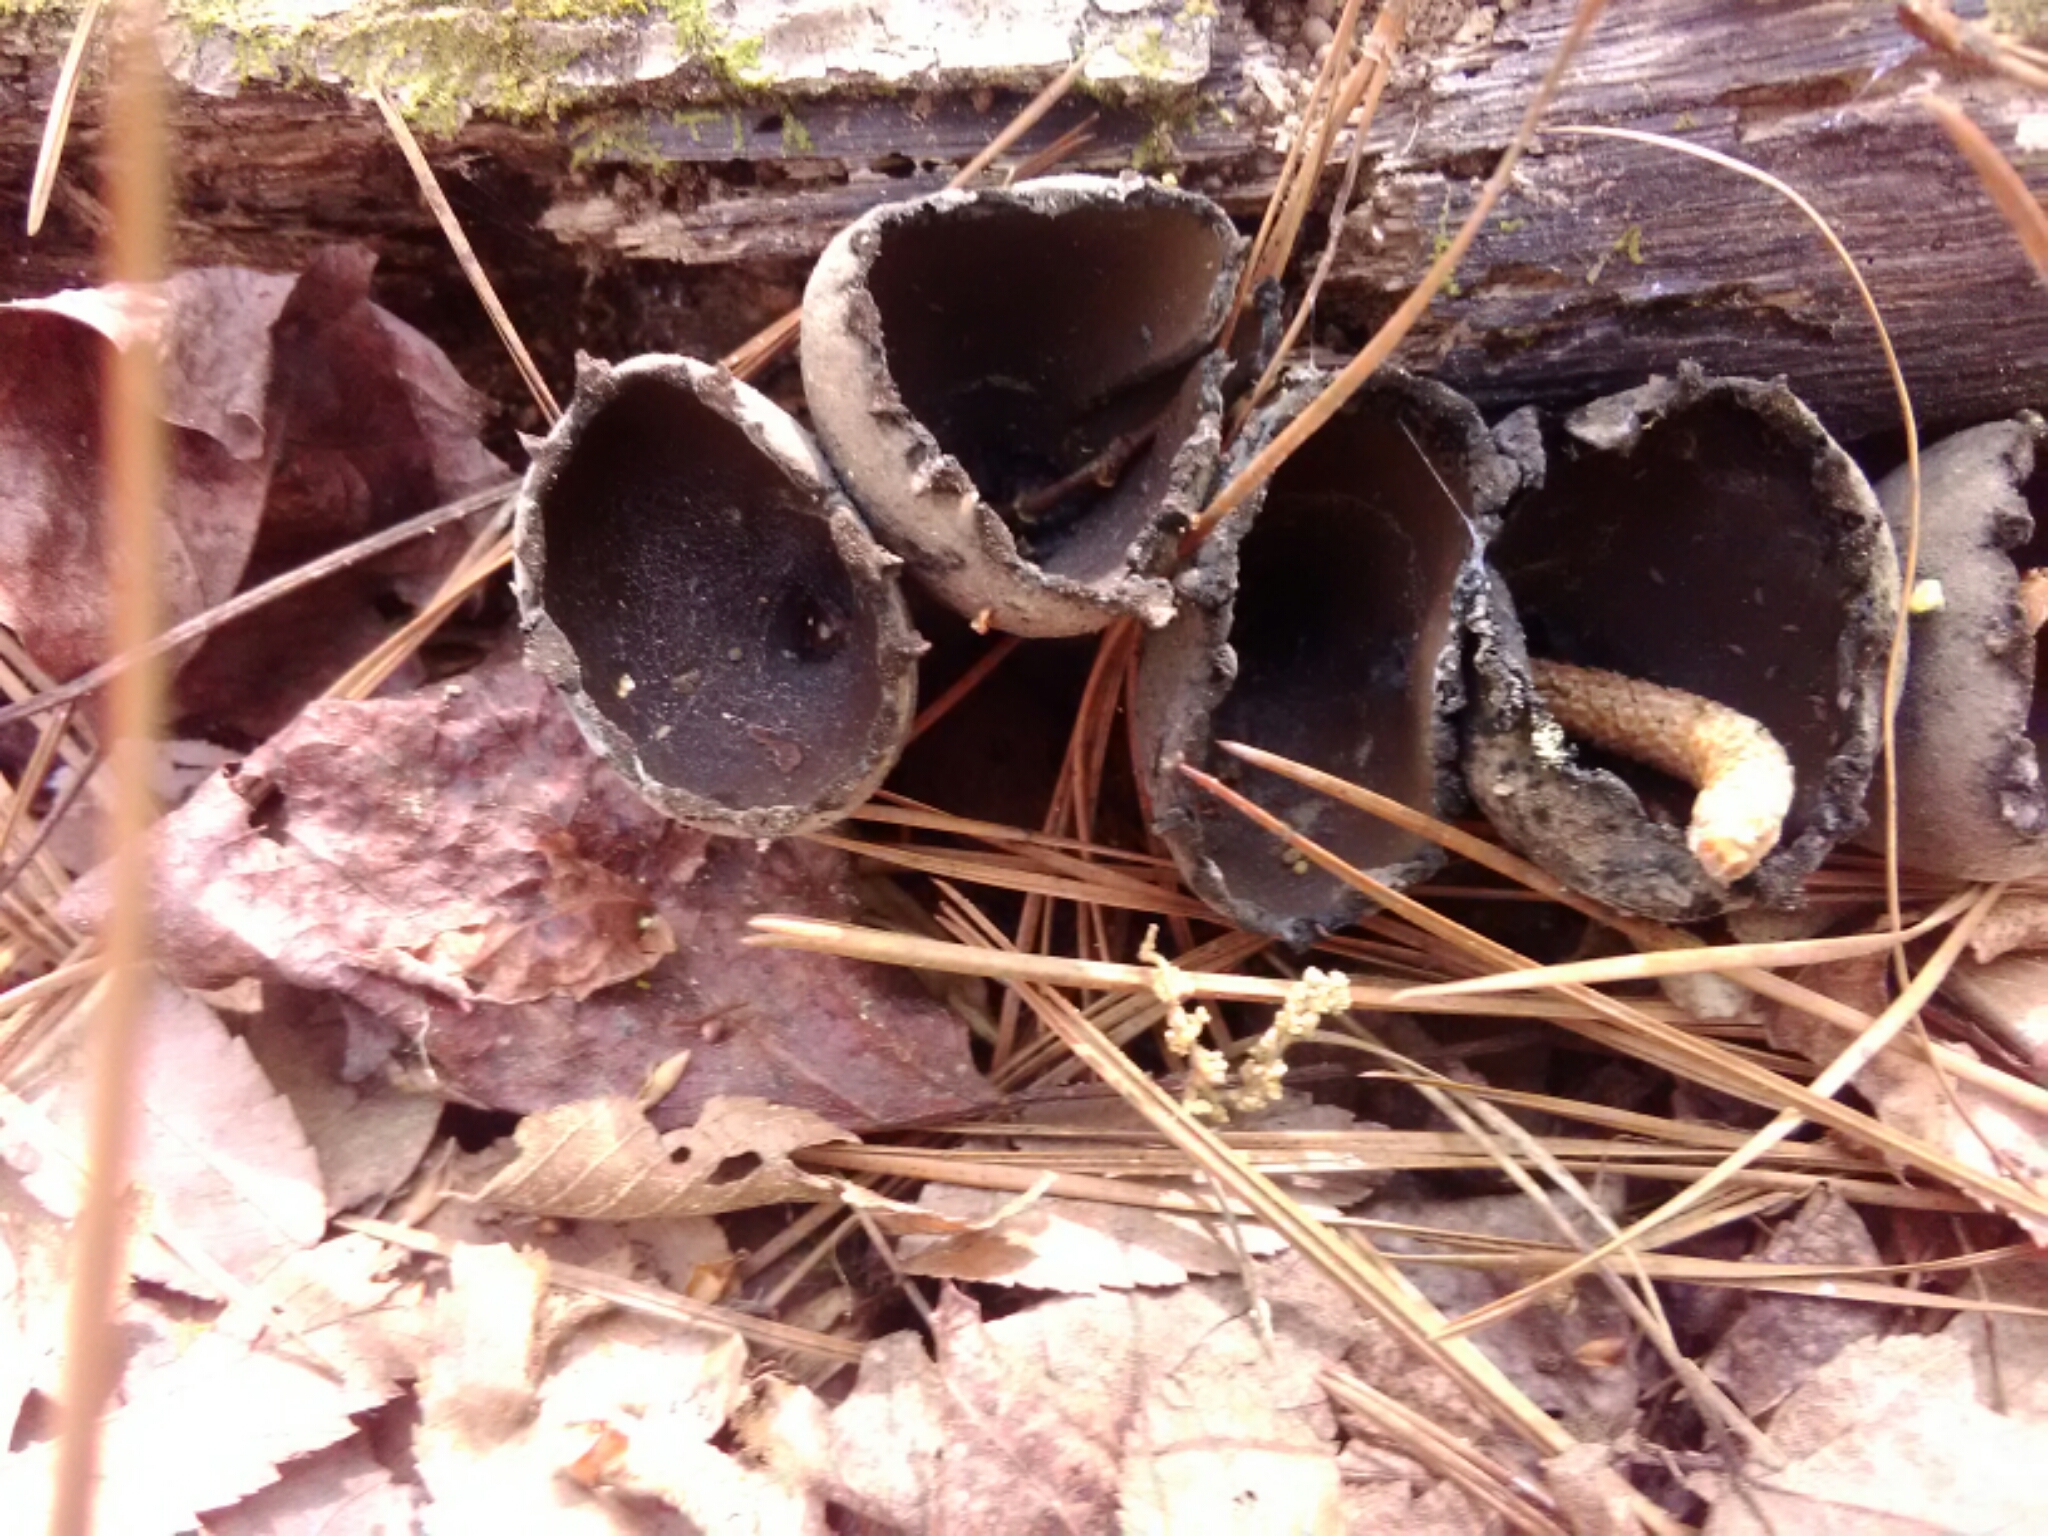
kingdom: Fungi
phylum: Ascomycota
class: Pezizomycetes
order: Pezizales
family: Sarcosomataceae
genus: Urnula
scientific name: Urnula craterium
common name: Devil's urn
